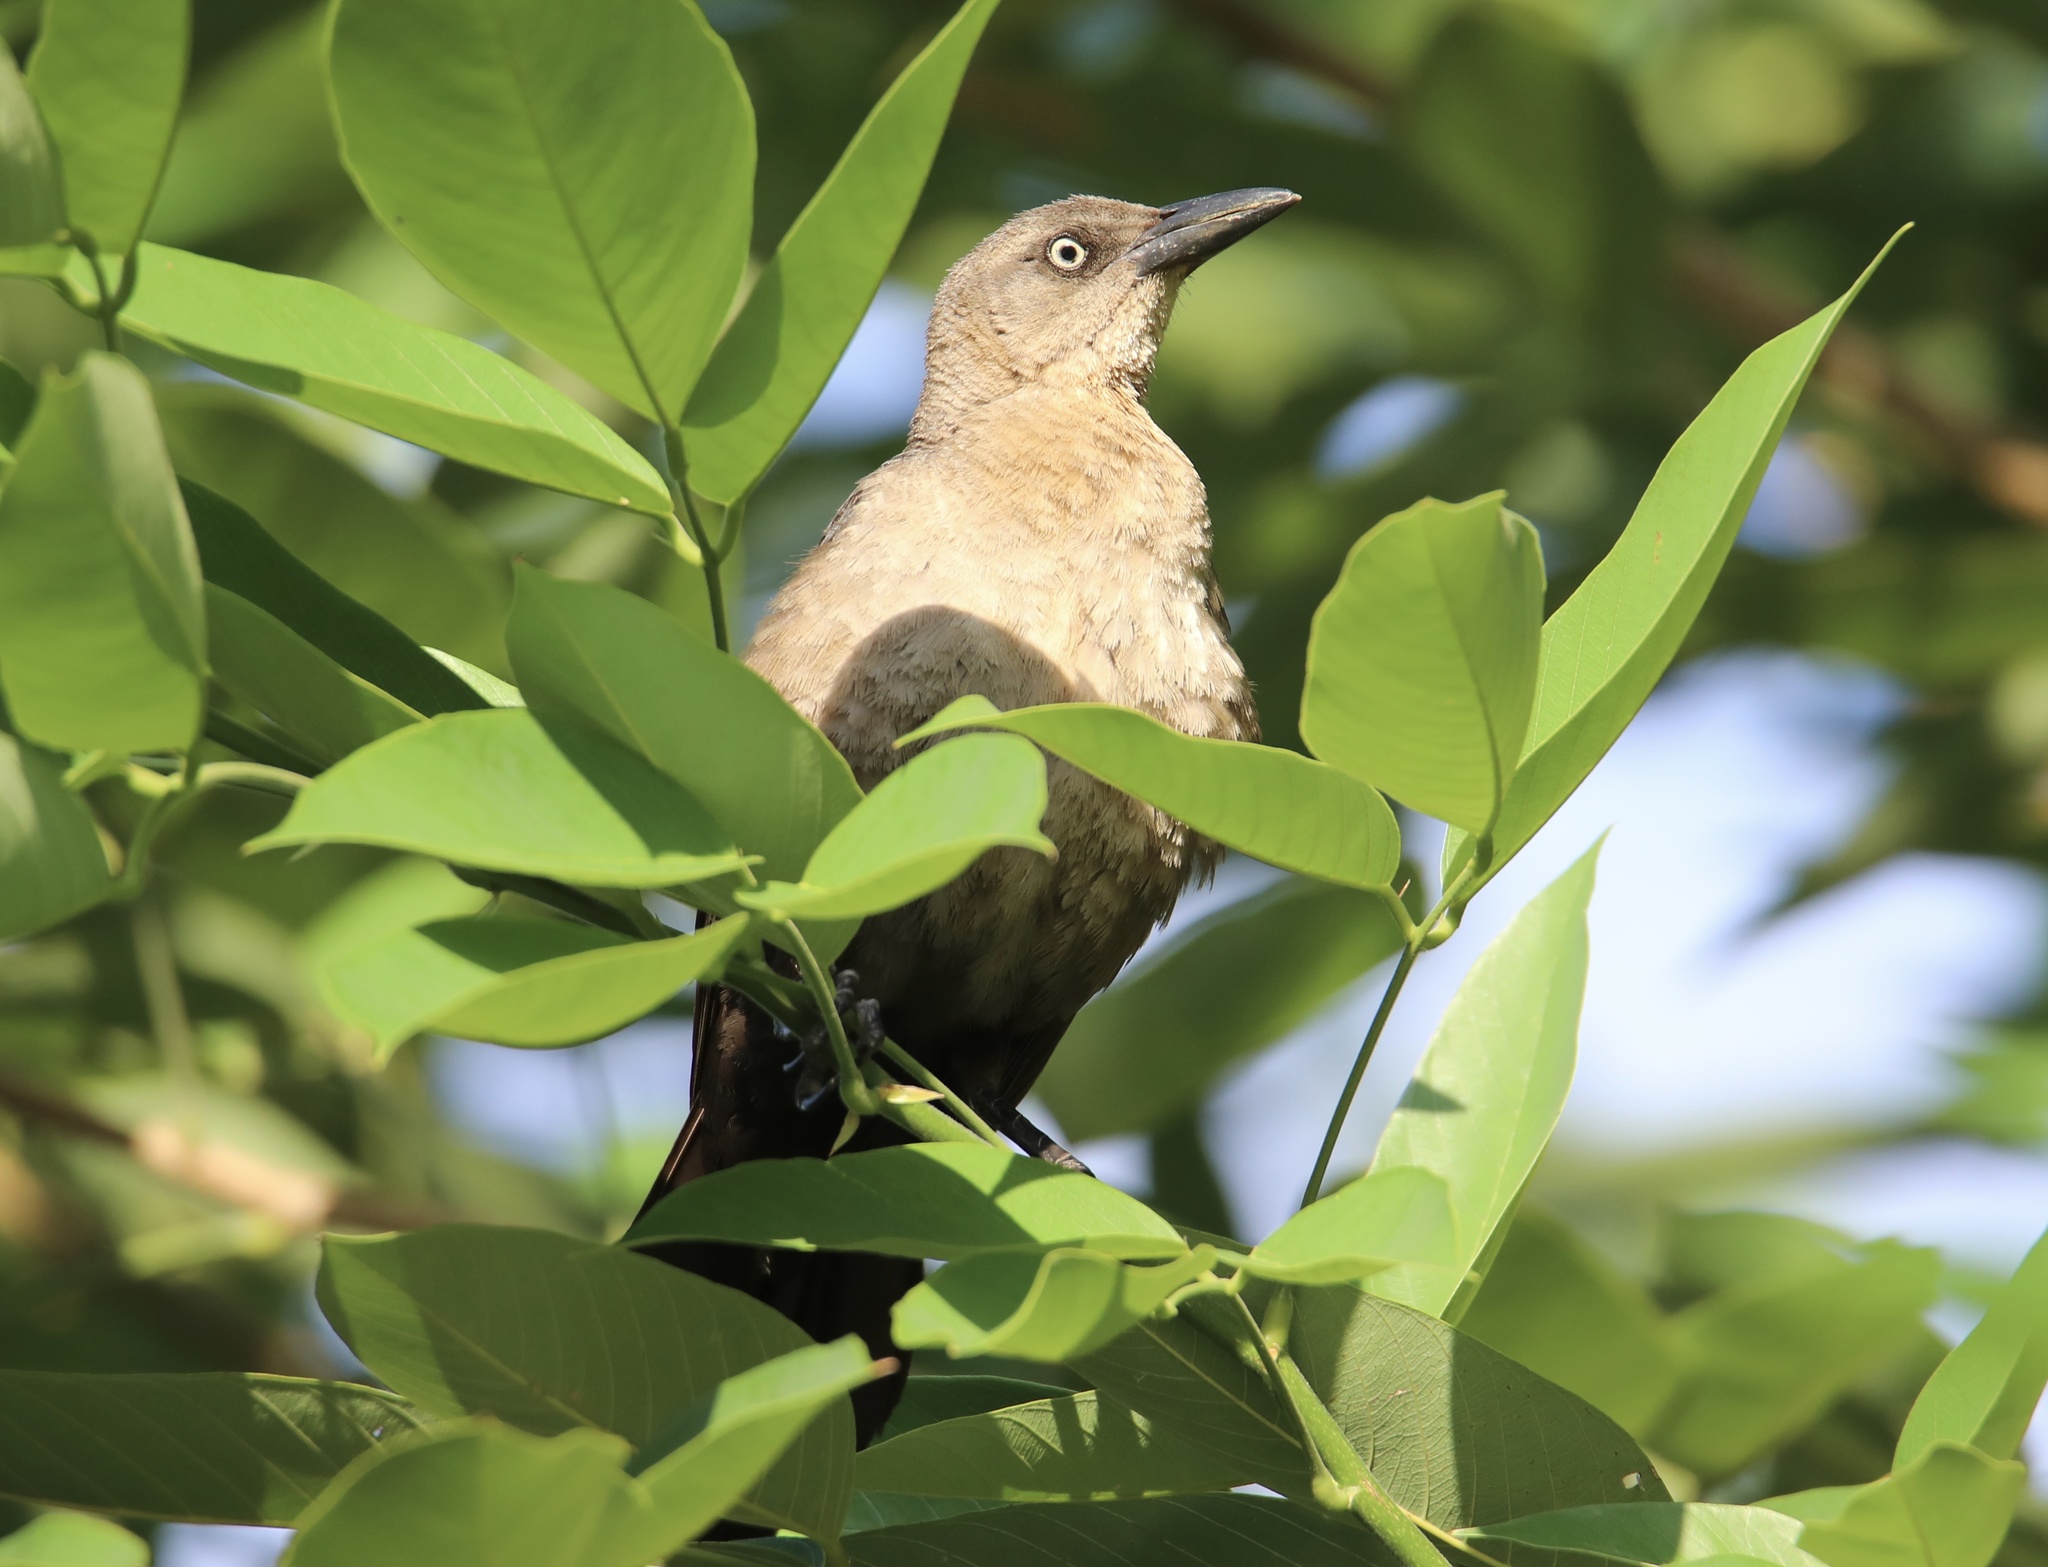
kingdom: Animalia
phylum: Chordata
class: Aves
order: Passeriformes
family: Icteridae
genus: Quiscalus
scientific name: Quiscalus mexicanus
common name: Great-tailed grackle
